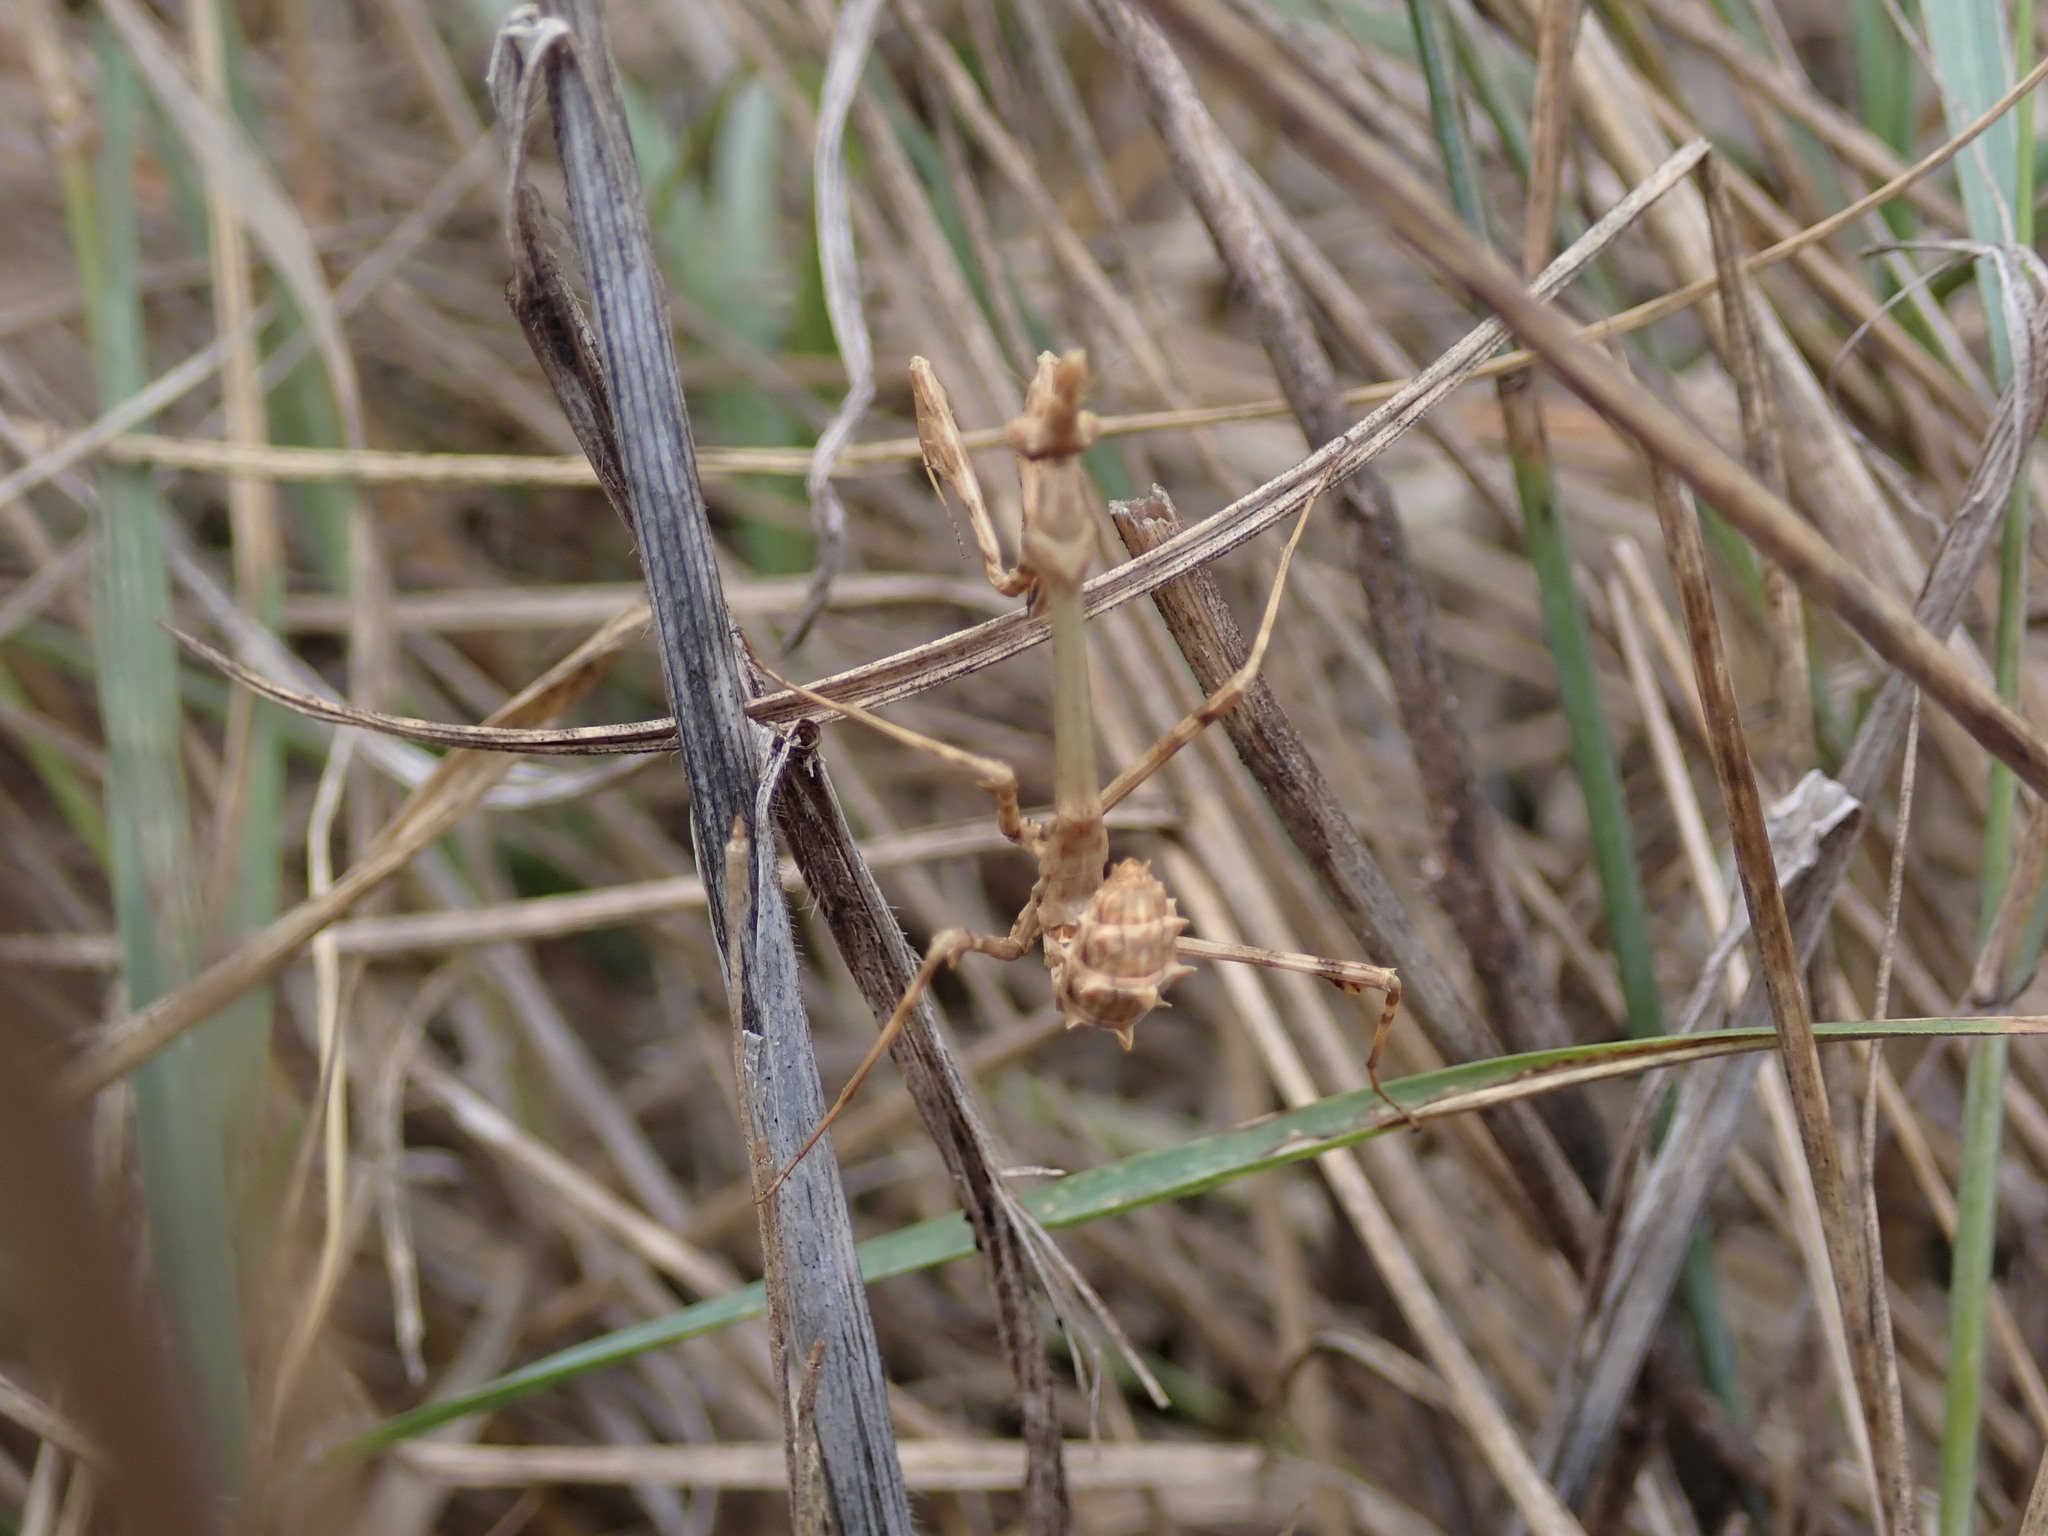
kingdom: Animalia
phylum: Arthropoda
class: Insecta
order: Mantodea
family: Empusidae
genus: Empusa
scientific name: Empusa pennata
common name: Conehead mantis
